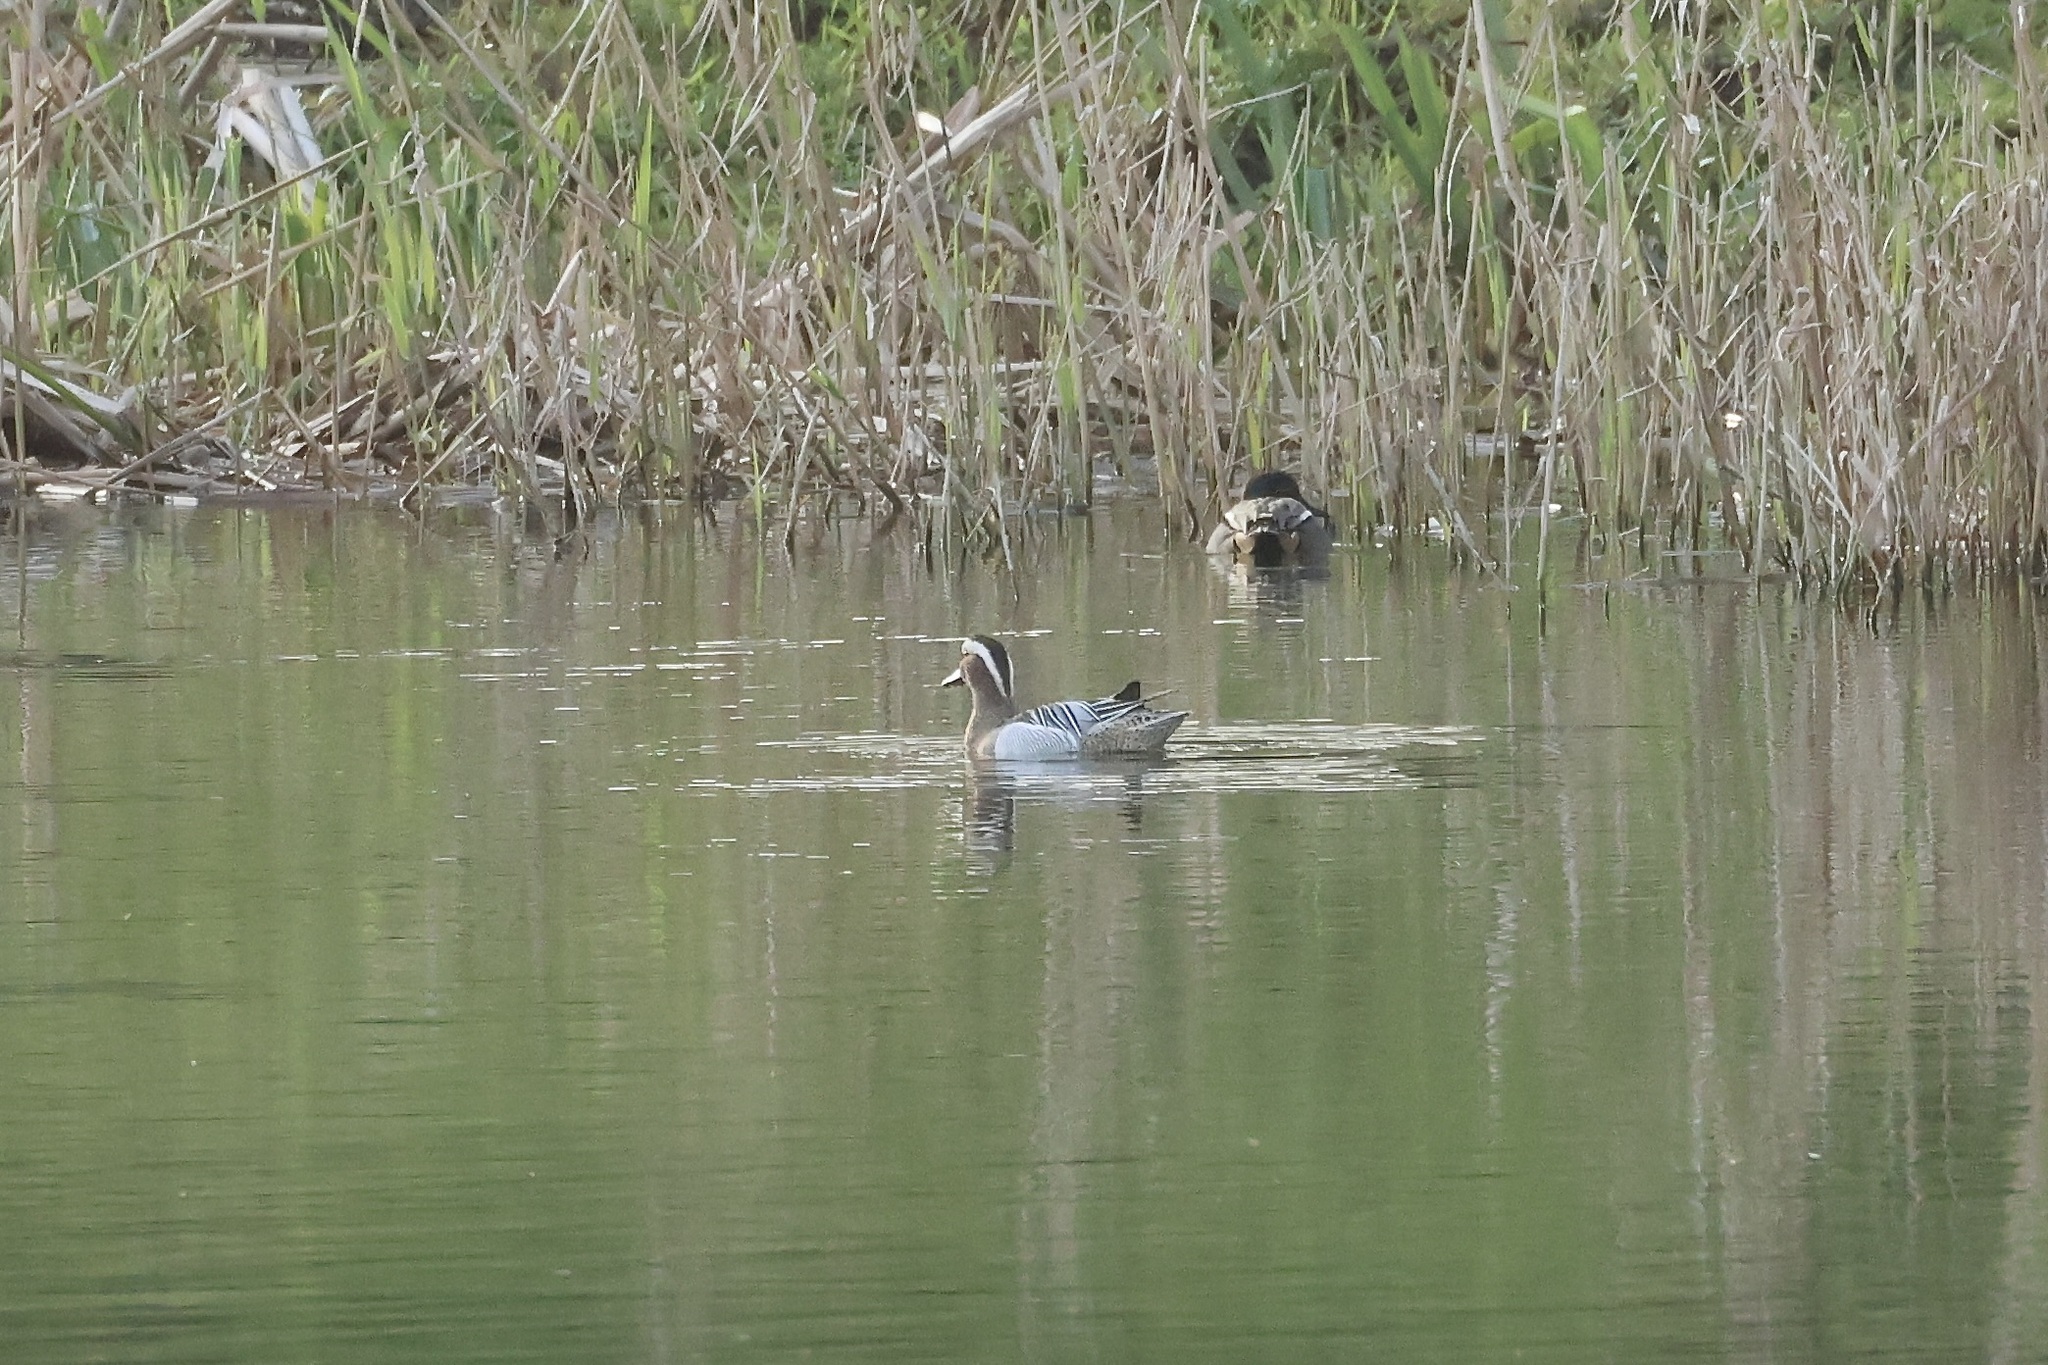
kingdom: Animalia
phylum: Chordata
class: Aves
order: Anseriformes
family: Anatidae
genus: Spatula
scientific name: Spatula querquedula
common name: Garganey
